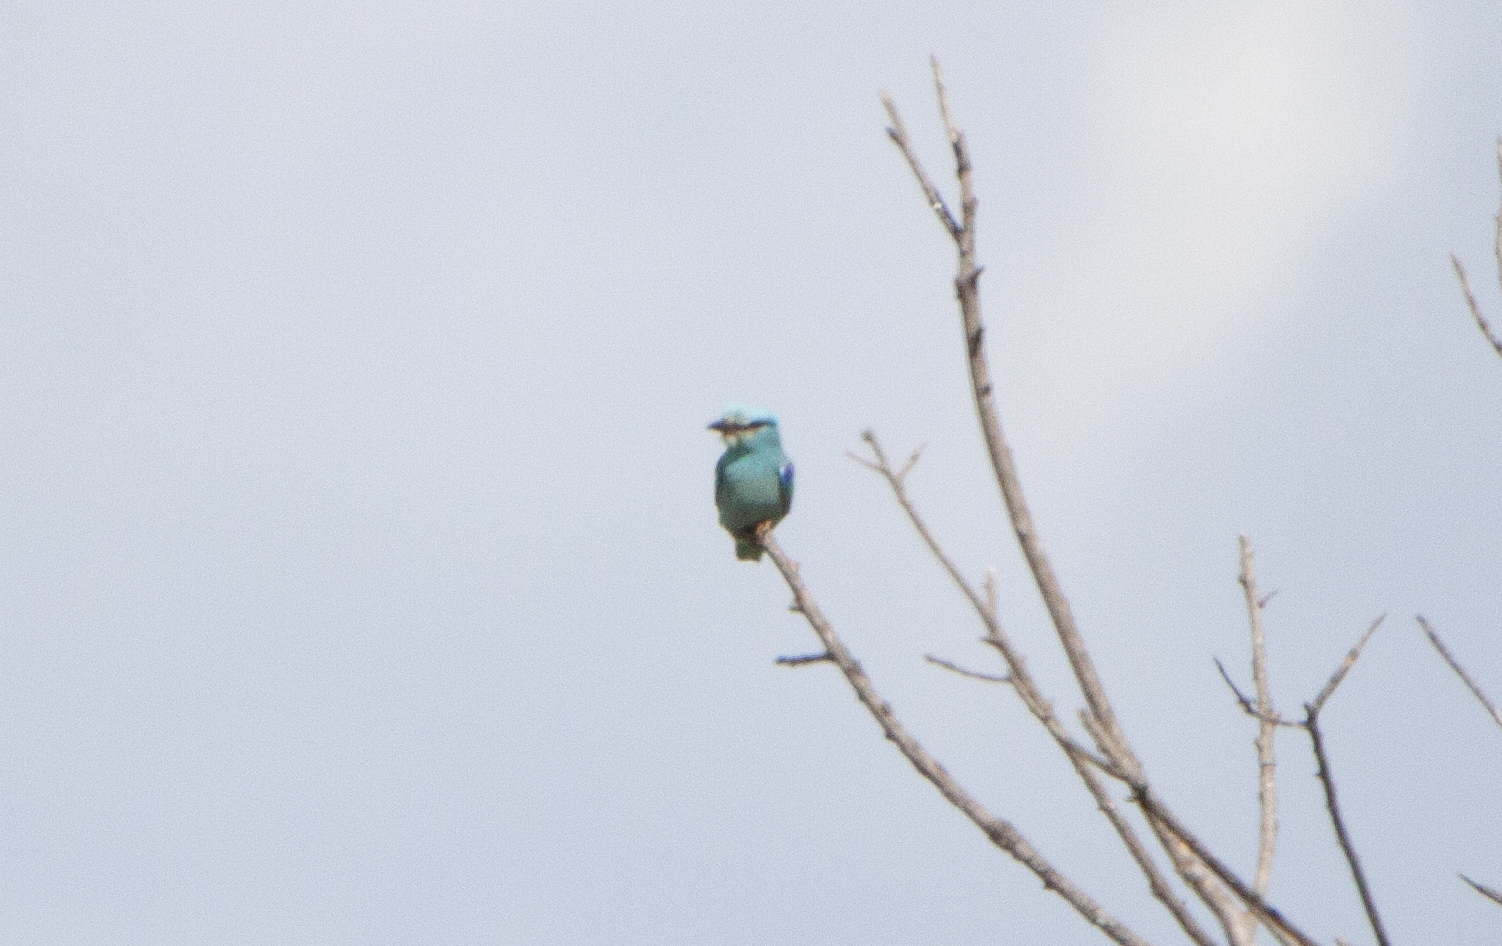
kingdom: Animalia
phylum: Chordata
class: Aves
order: Coraciiformes
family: Coraciidae
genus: Coracias
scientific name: Coracias garrulus
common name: European roller
